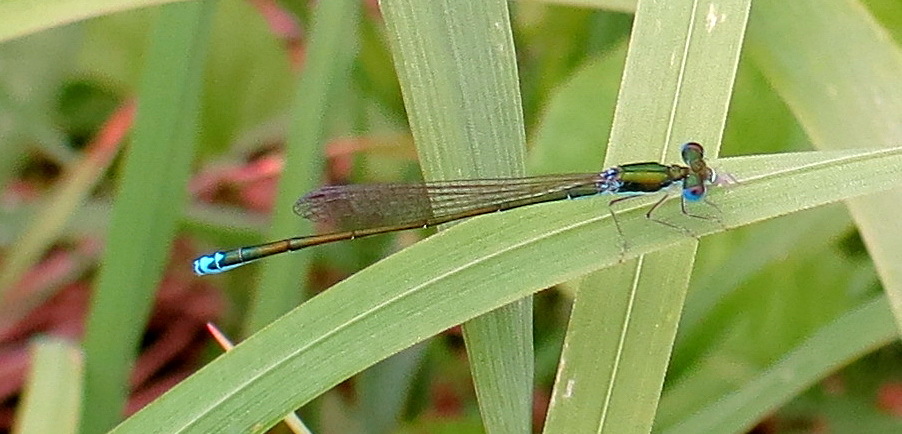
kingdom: Animalia
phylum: Arthropoda
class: Insecta
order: Odonata
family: Coenagrionidae
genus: Nehalennia
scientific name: Nehalennia irene
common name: Sedge sprite
